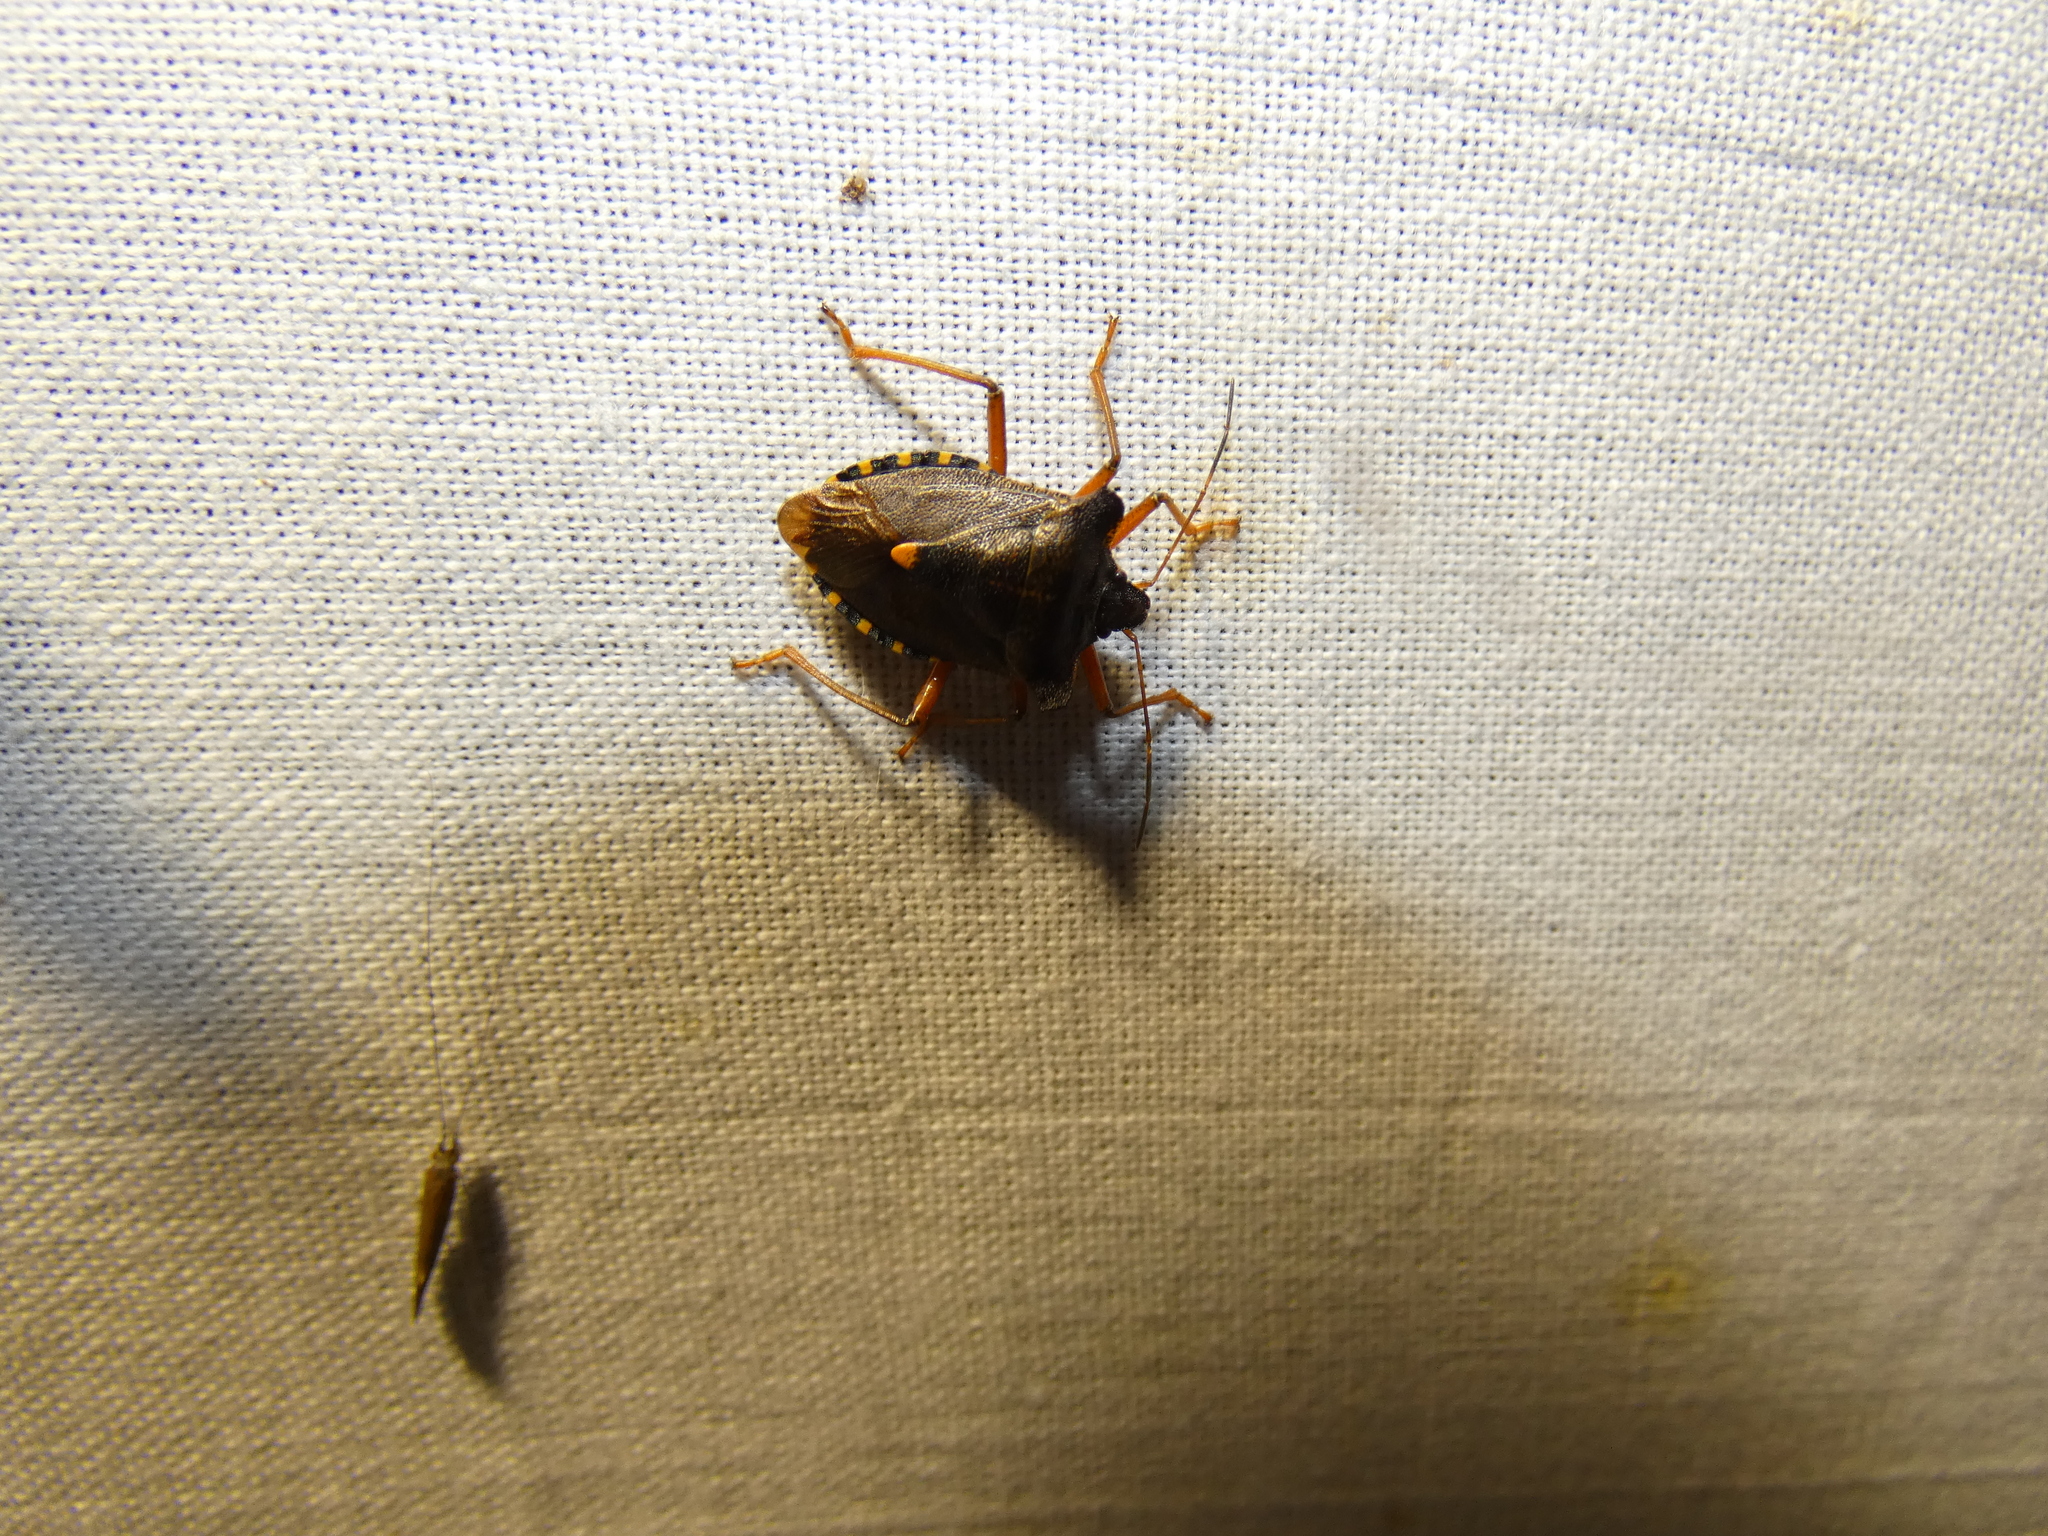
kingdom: Animalia
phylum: Arthropoda
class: Insecta
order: Hemiptera
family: Pentatomidae
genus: Pentatoma
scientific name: Pentatoma rufipes
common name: Forest bug
